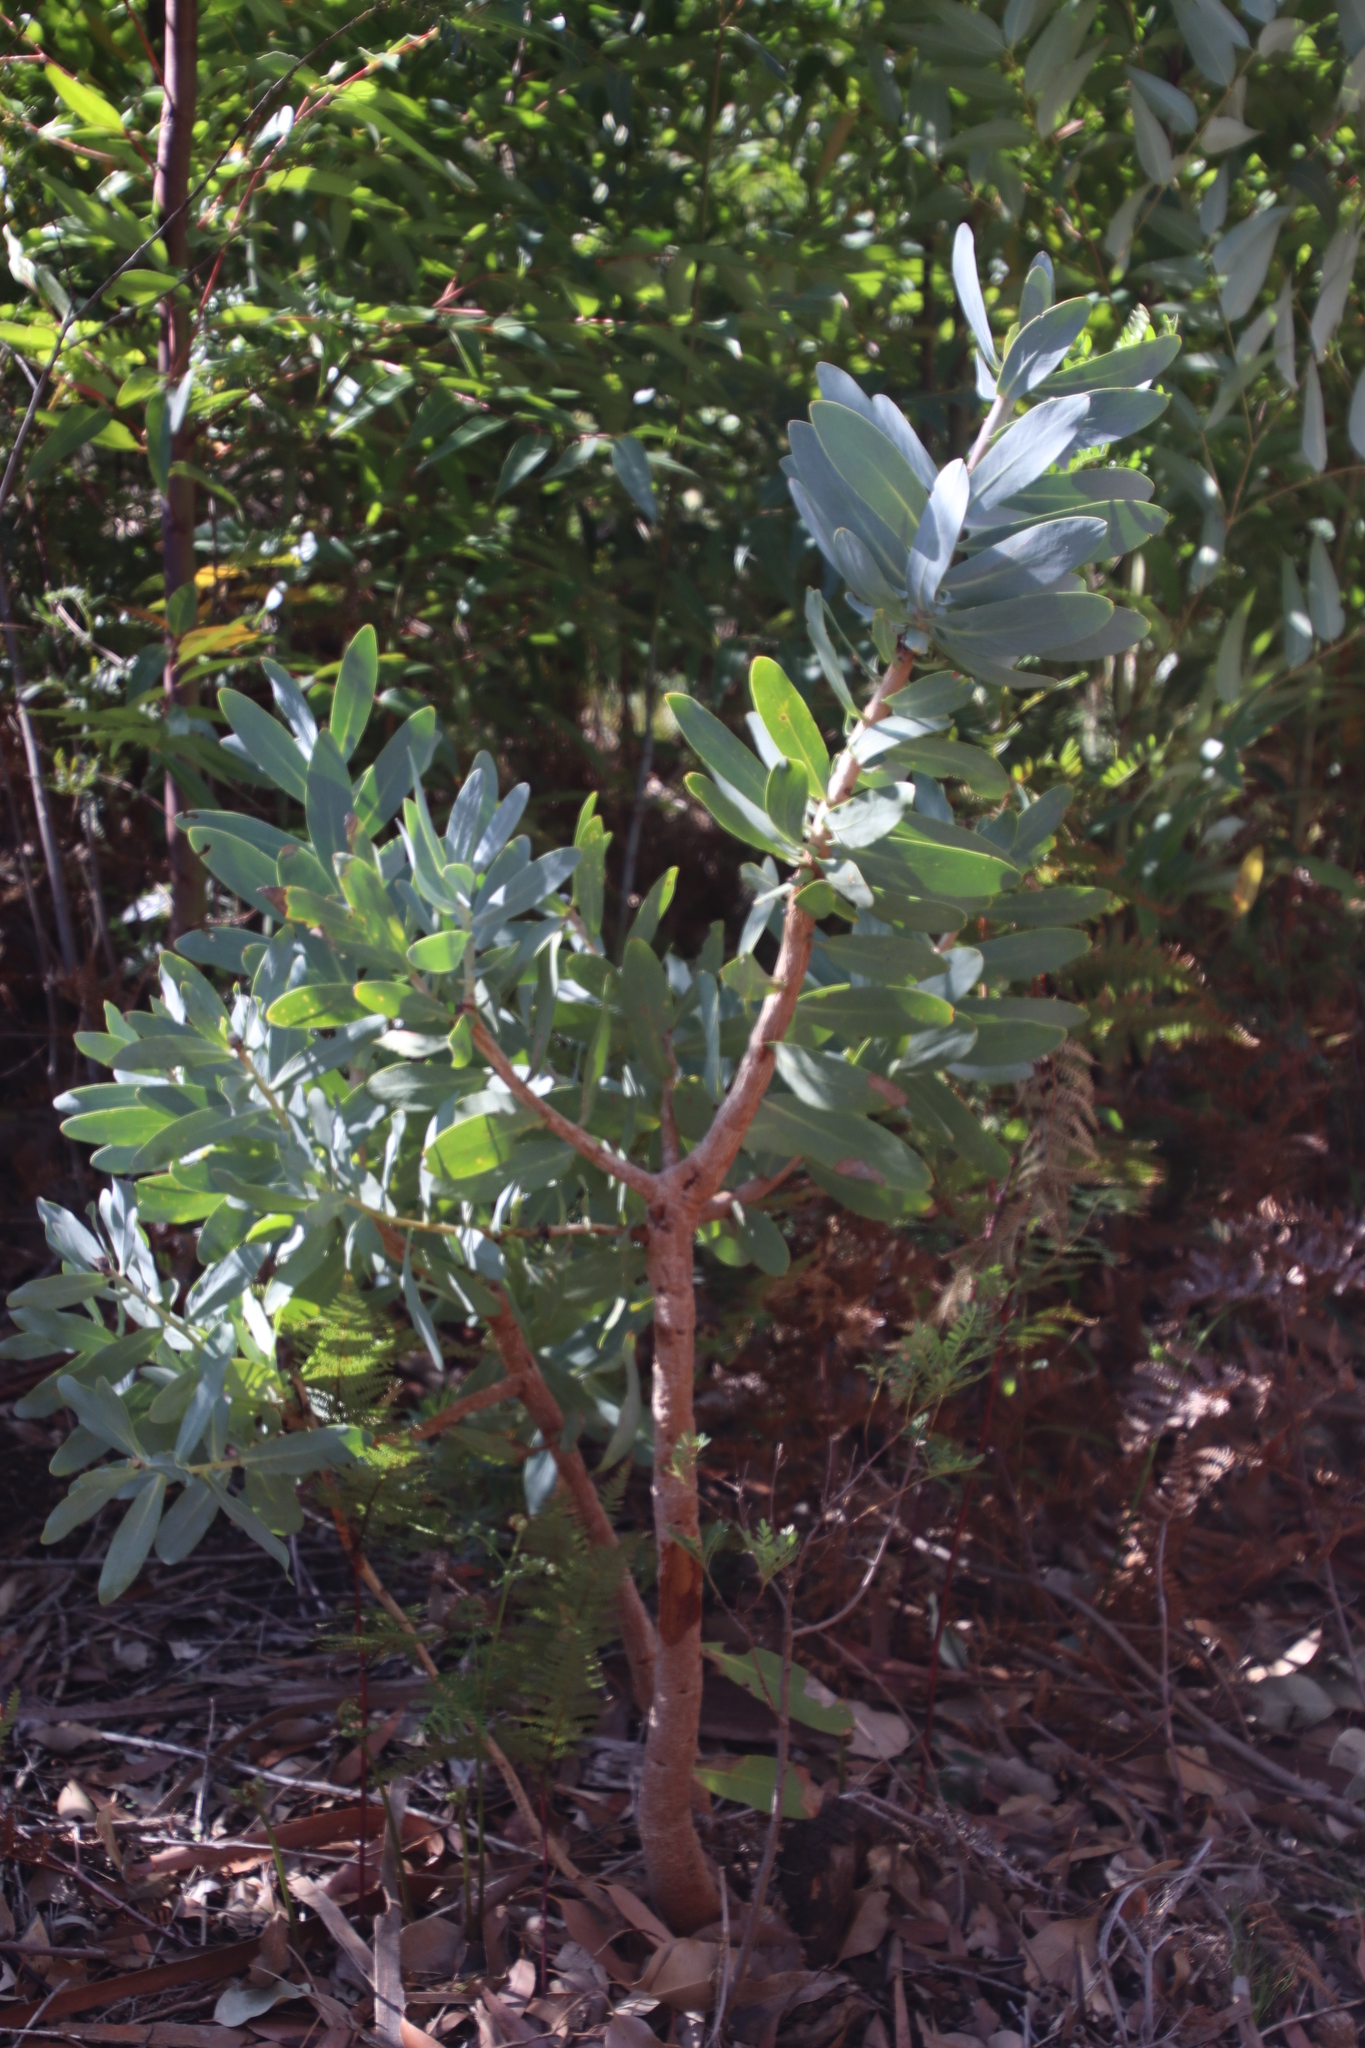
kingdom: Plantae
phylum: Tracheophyta
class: Magnoliopsida
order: Proteales
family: Proteaceae
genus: Protea
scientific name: Protea nitida
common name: Tree protea
